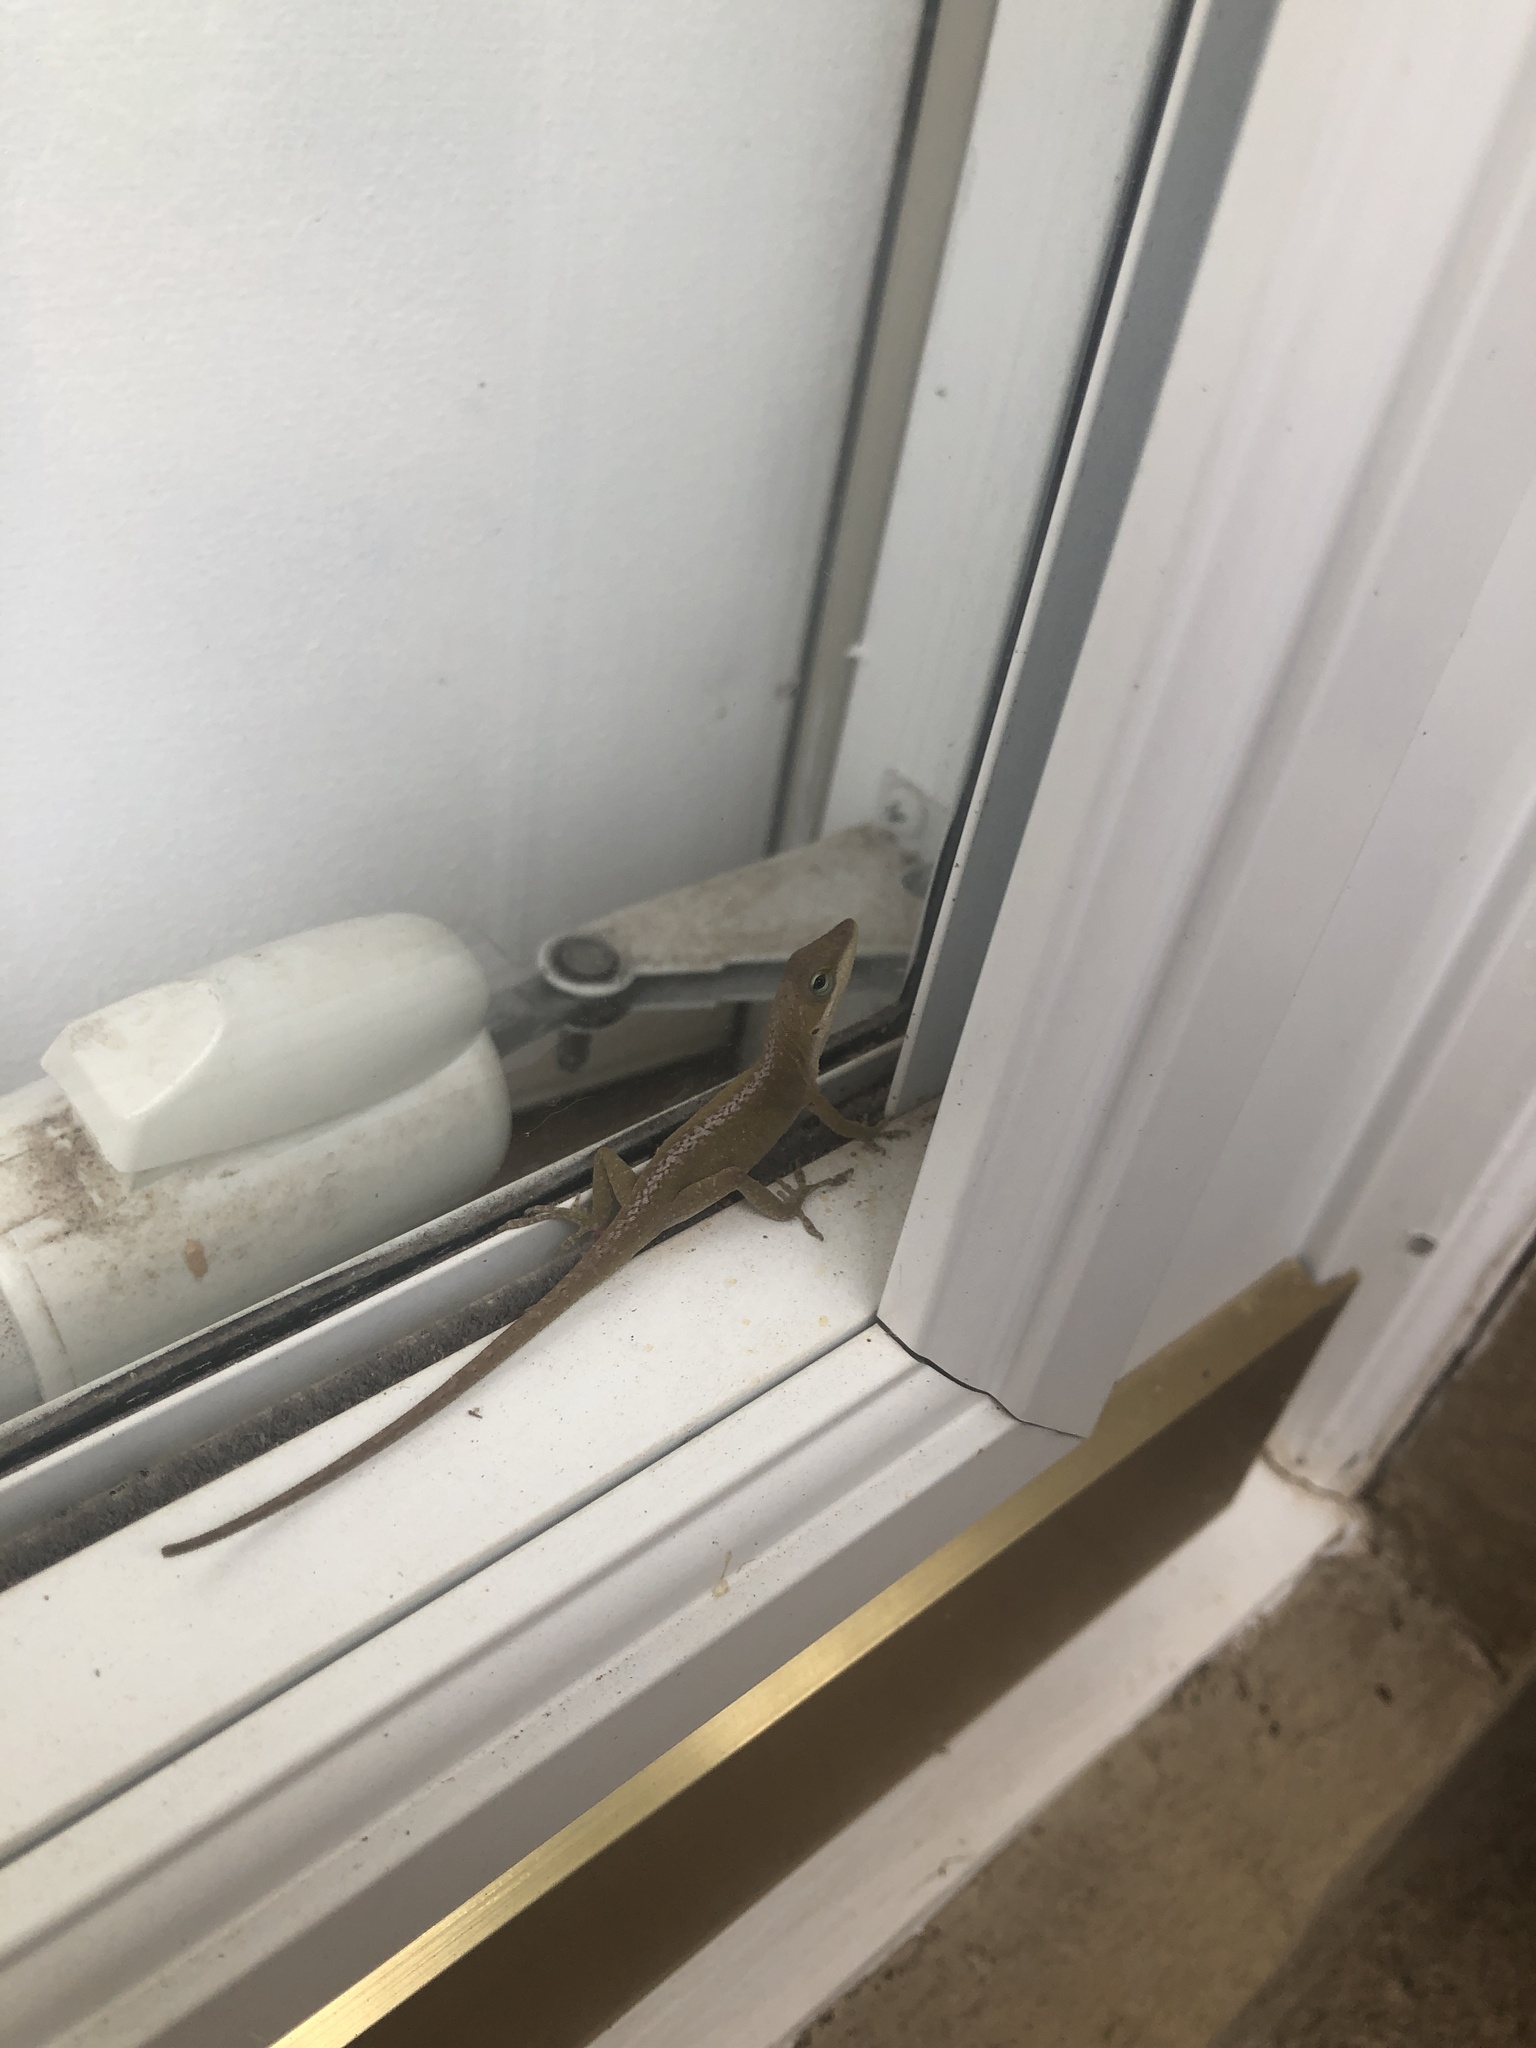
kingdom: Animalia
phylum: Chordata
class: Squamata
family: Dactyloidae
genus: Anolis
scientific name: Anolis carolinensis
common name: Green anole
